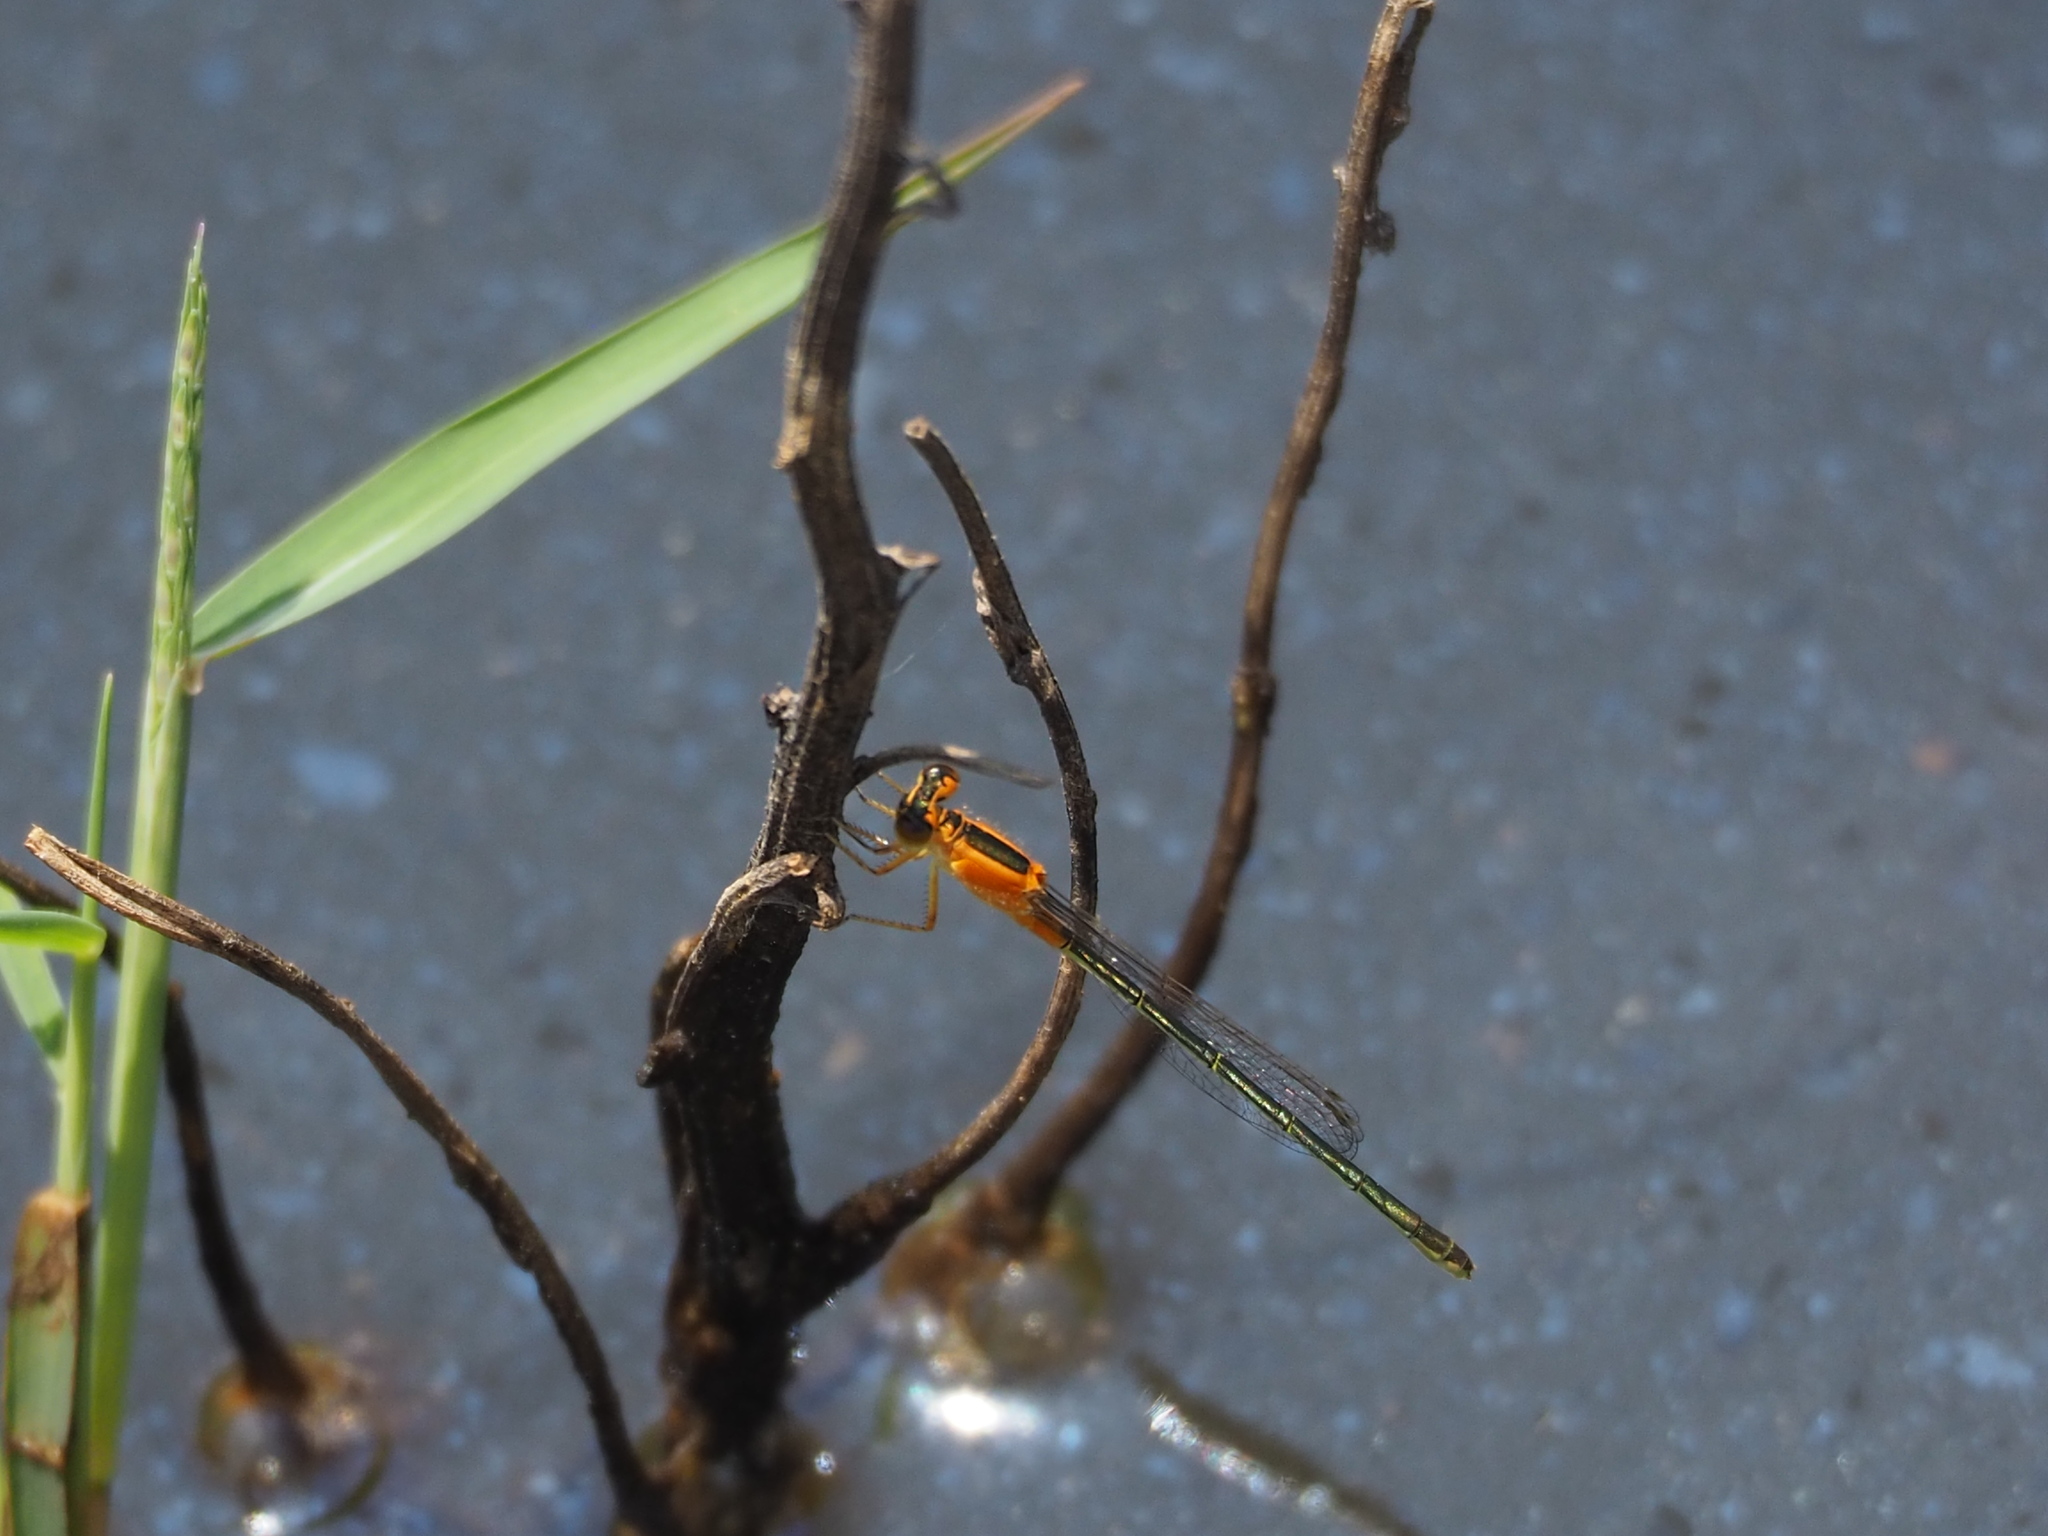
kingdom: Animalia
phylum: Arthropoda
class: Insecta
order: Odonata
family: Coenagrionidae
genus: Ischnura
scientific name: Ischnura senegalensis
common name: Tropical bluetail
